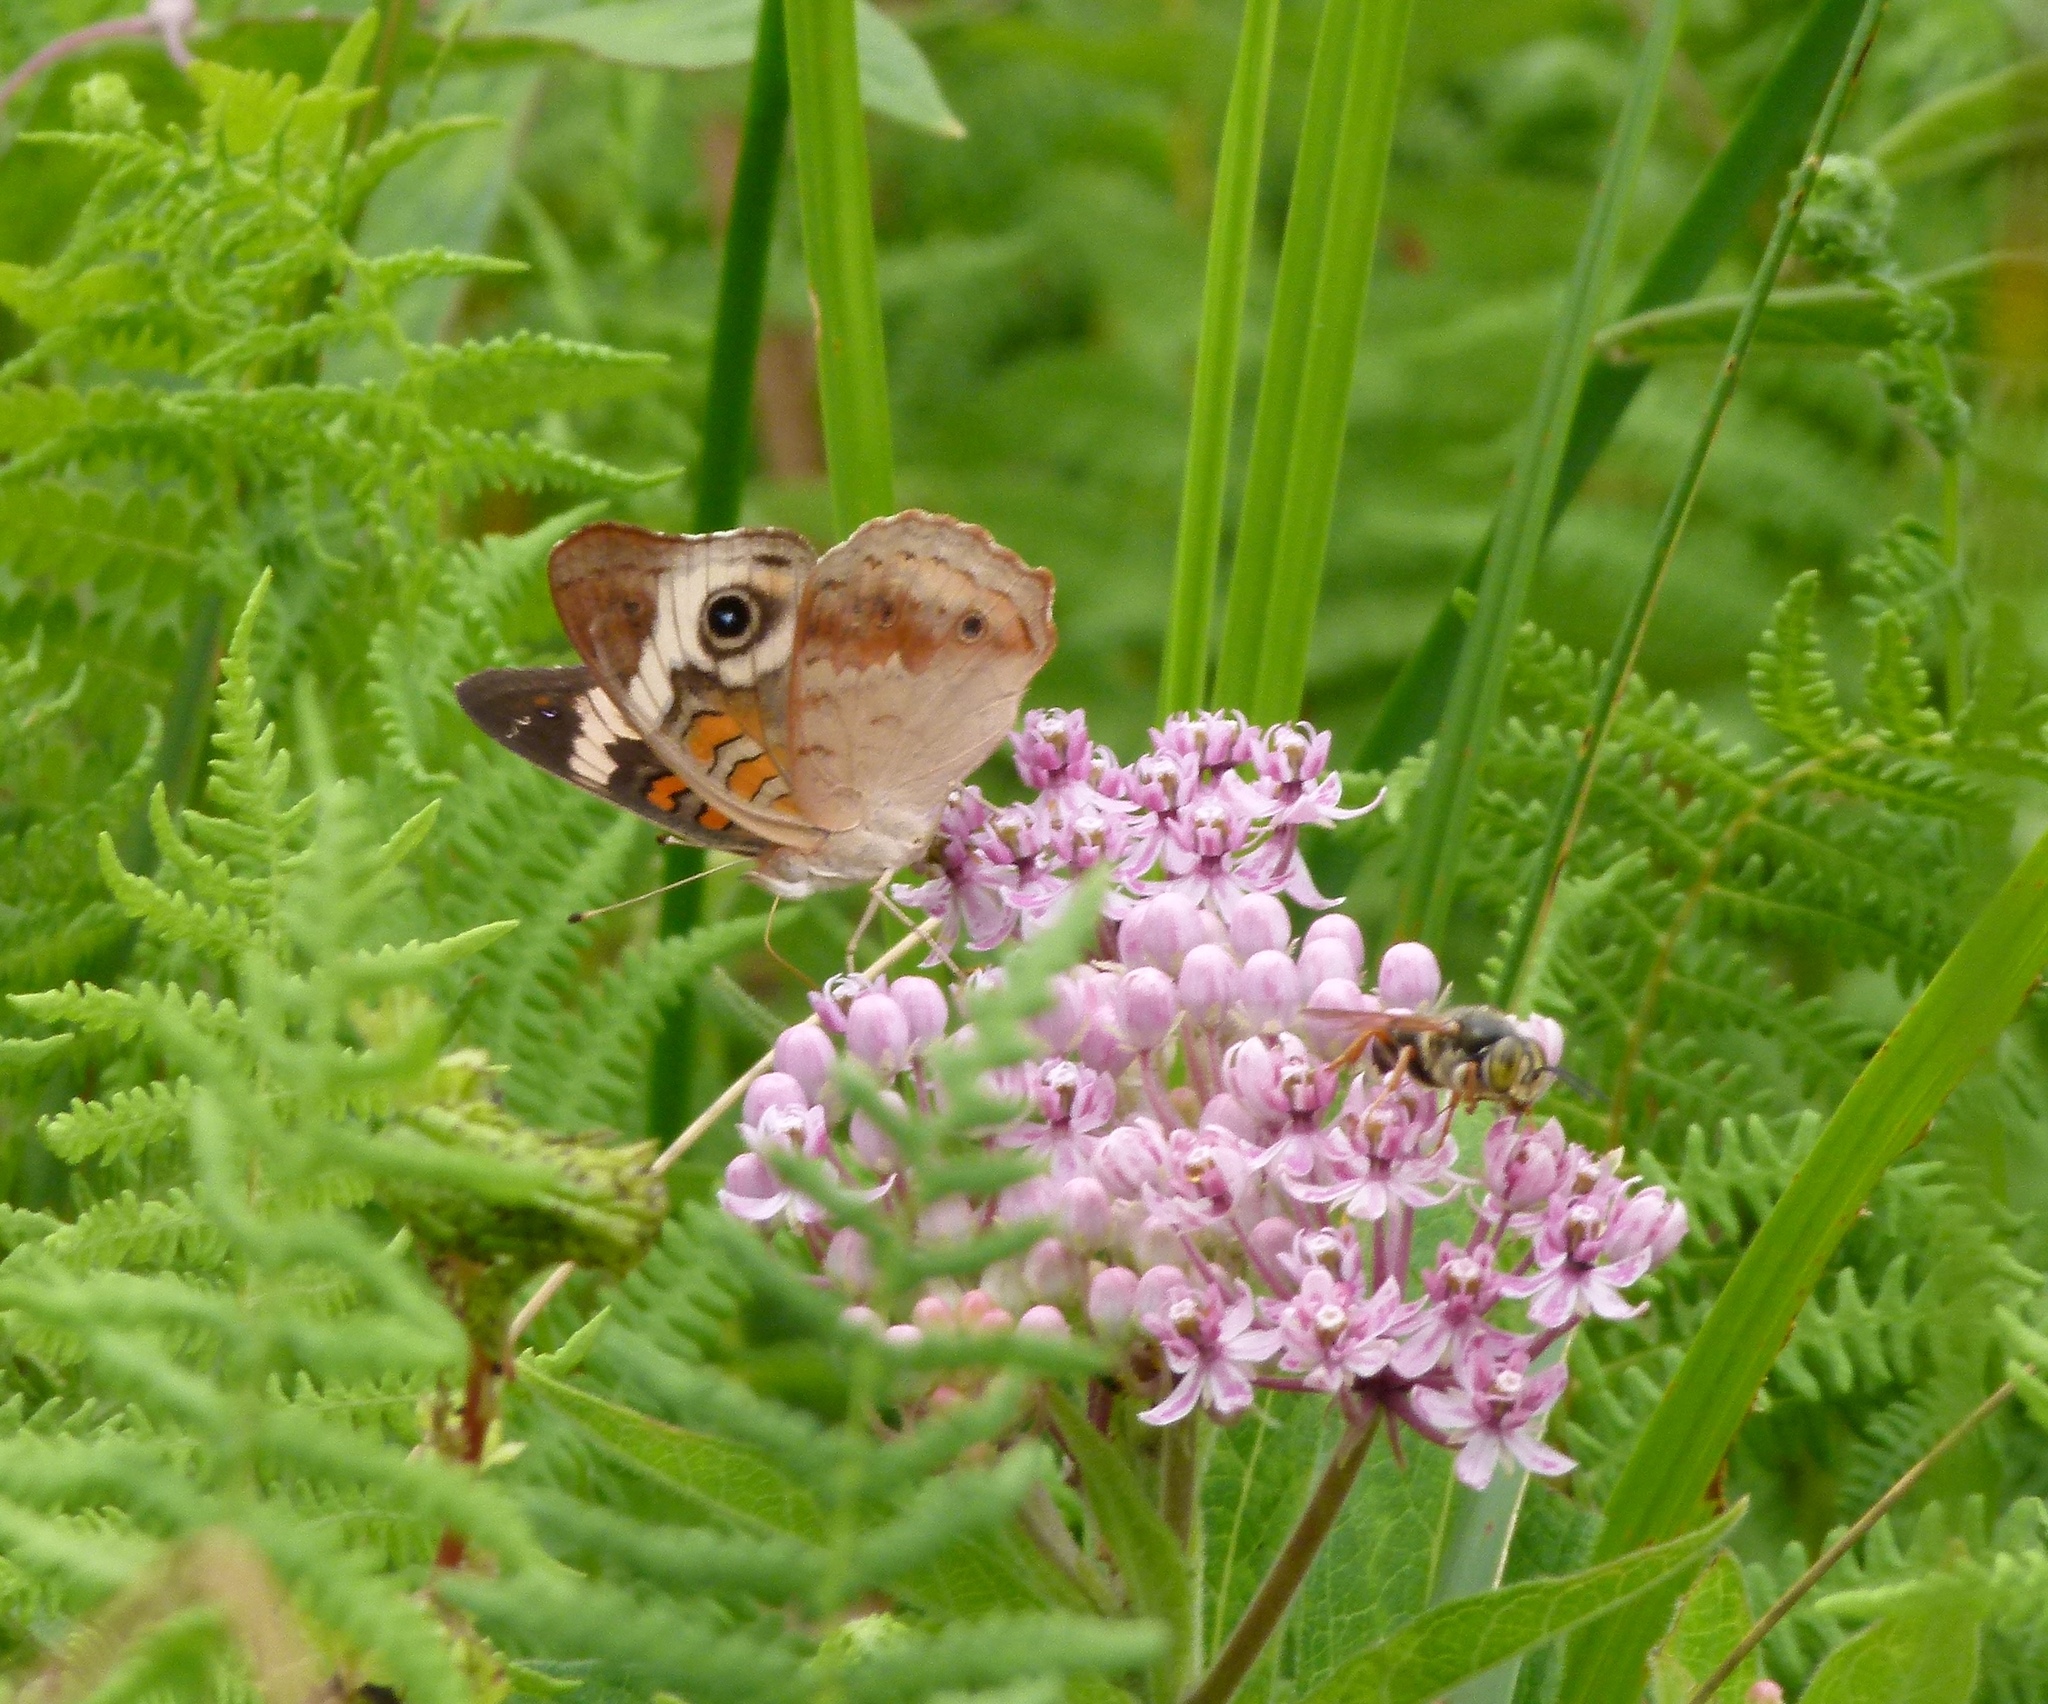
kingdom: Animalia
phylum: Arthropoda
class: Insecta
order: Lepidoptera
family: Nymphalidae
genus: Junonia
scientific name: Junonia coenia
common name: Common buckeye
